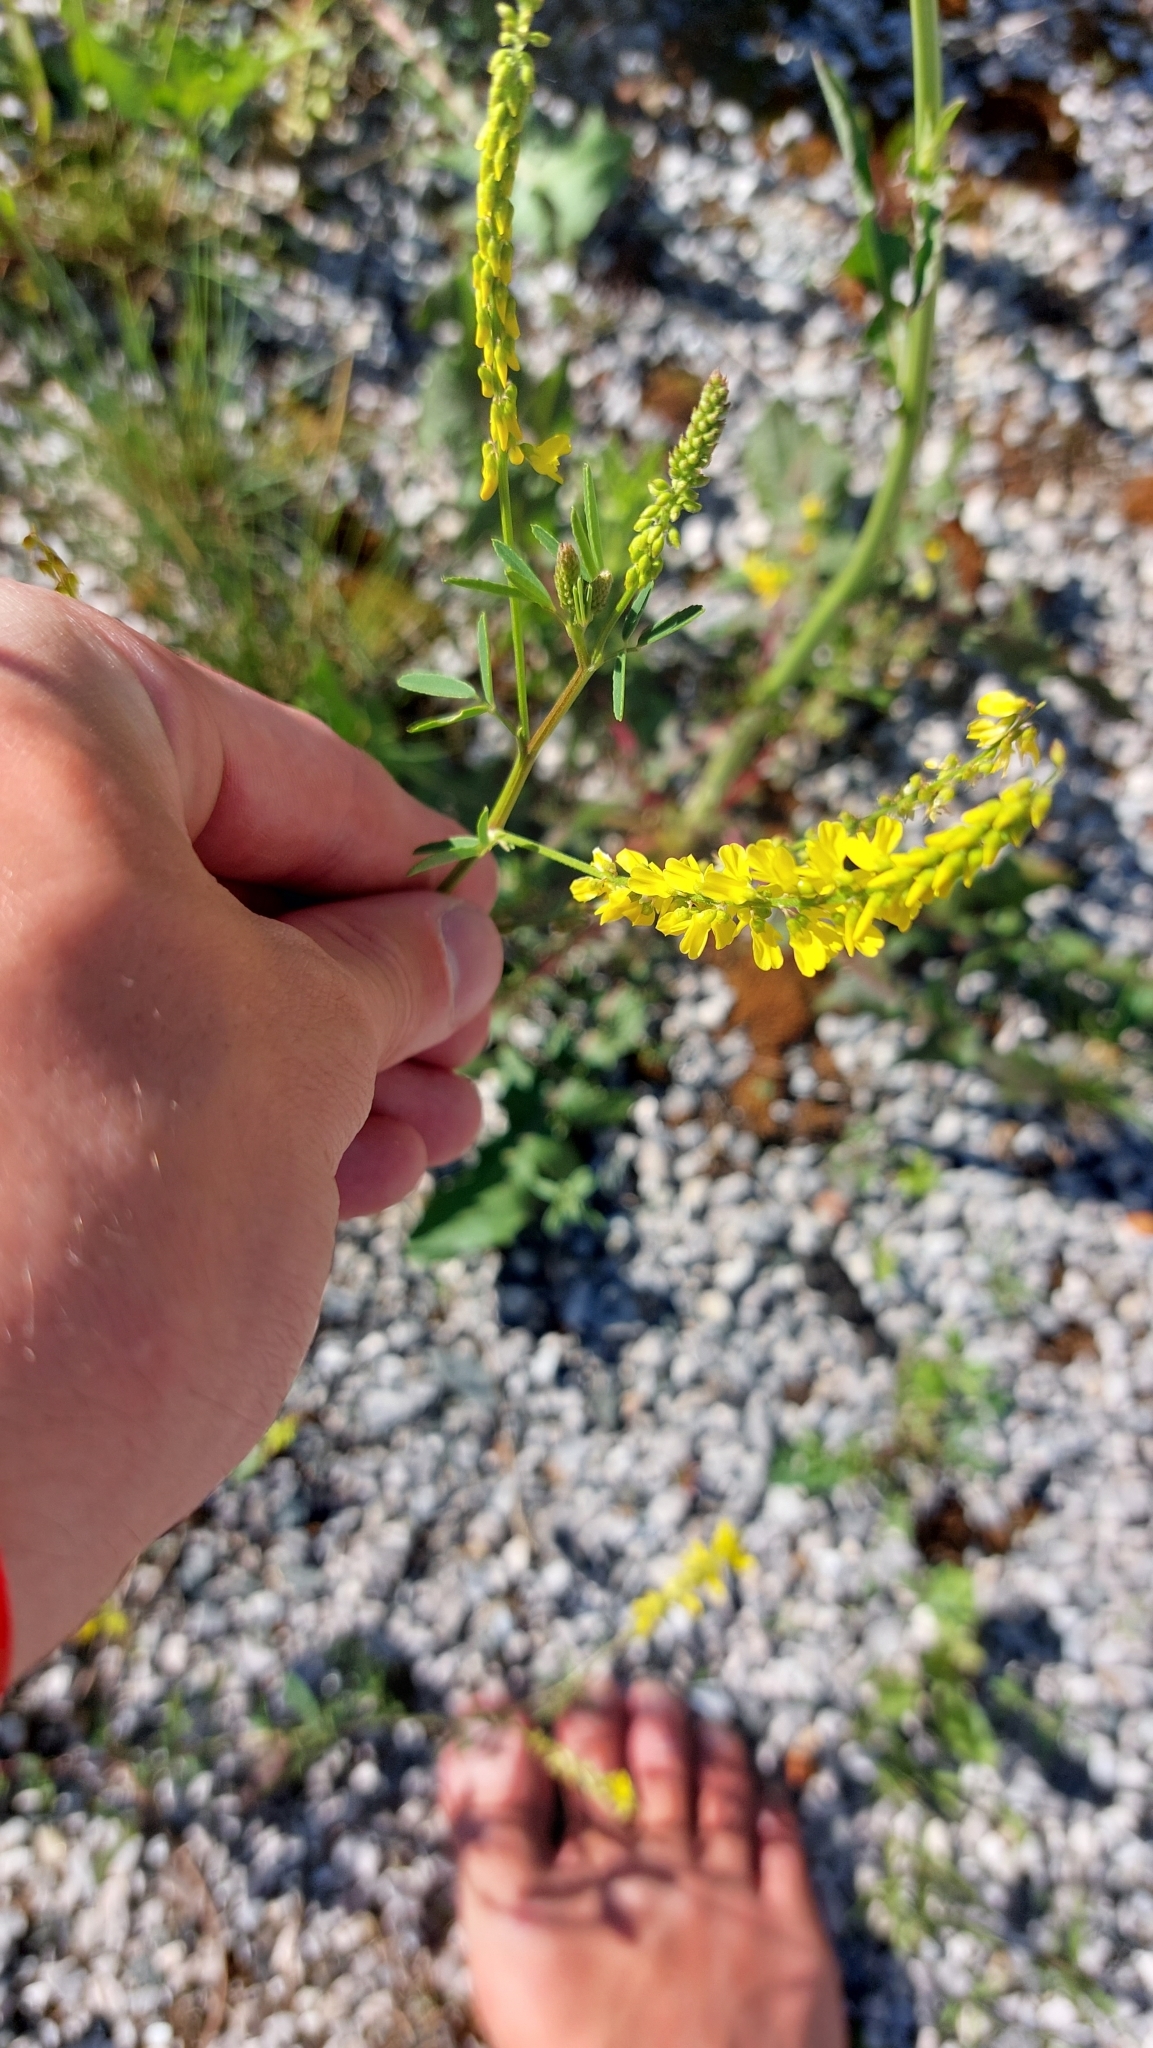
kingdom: Plantae
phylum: Tracheophyta
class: Magnoliopsida
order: Fabales
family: Fabaceae
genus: Melilotus
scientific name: Melilotus officinalis
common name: Sweetclover
